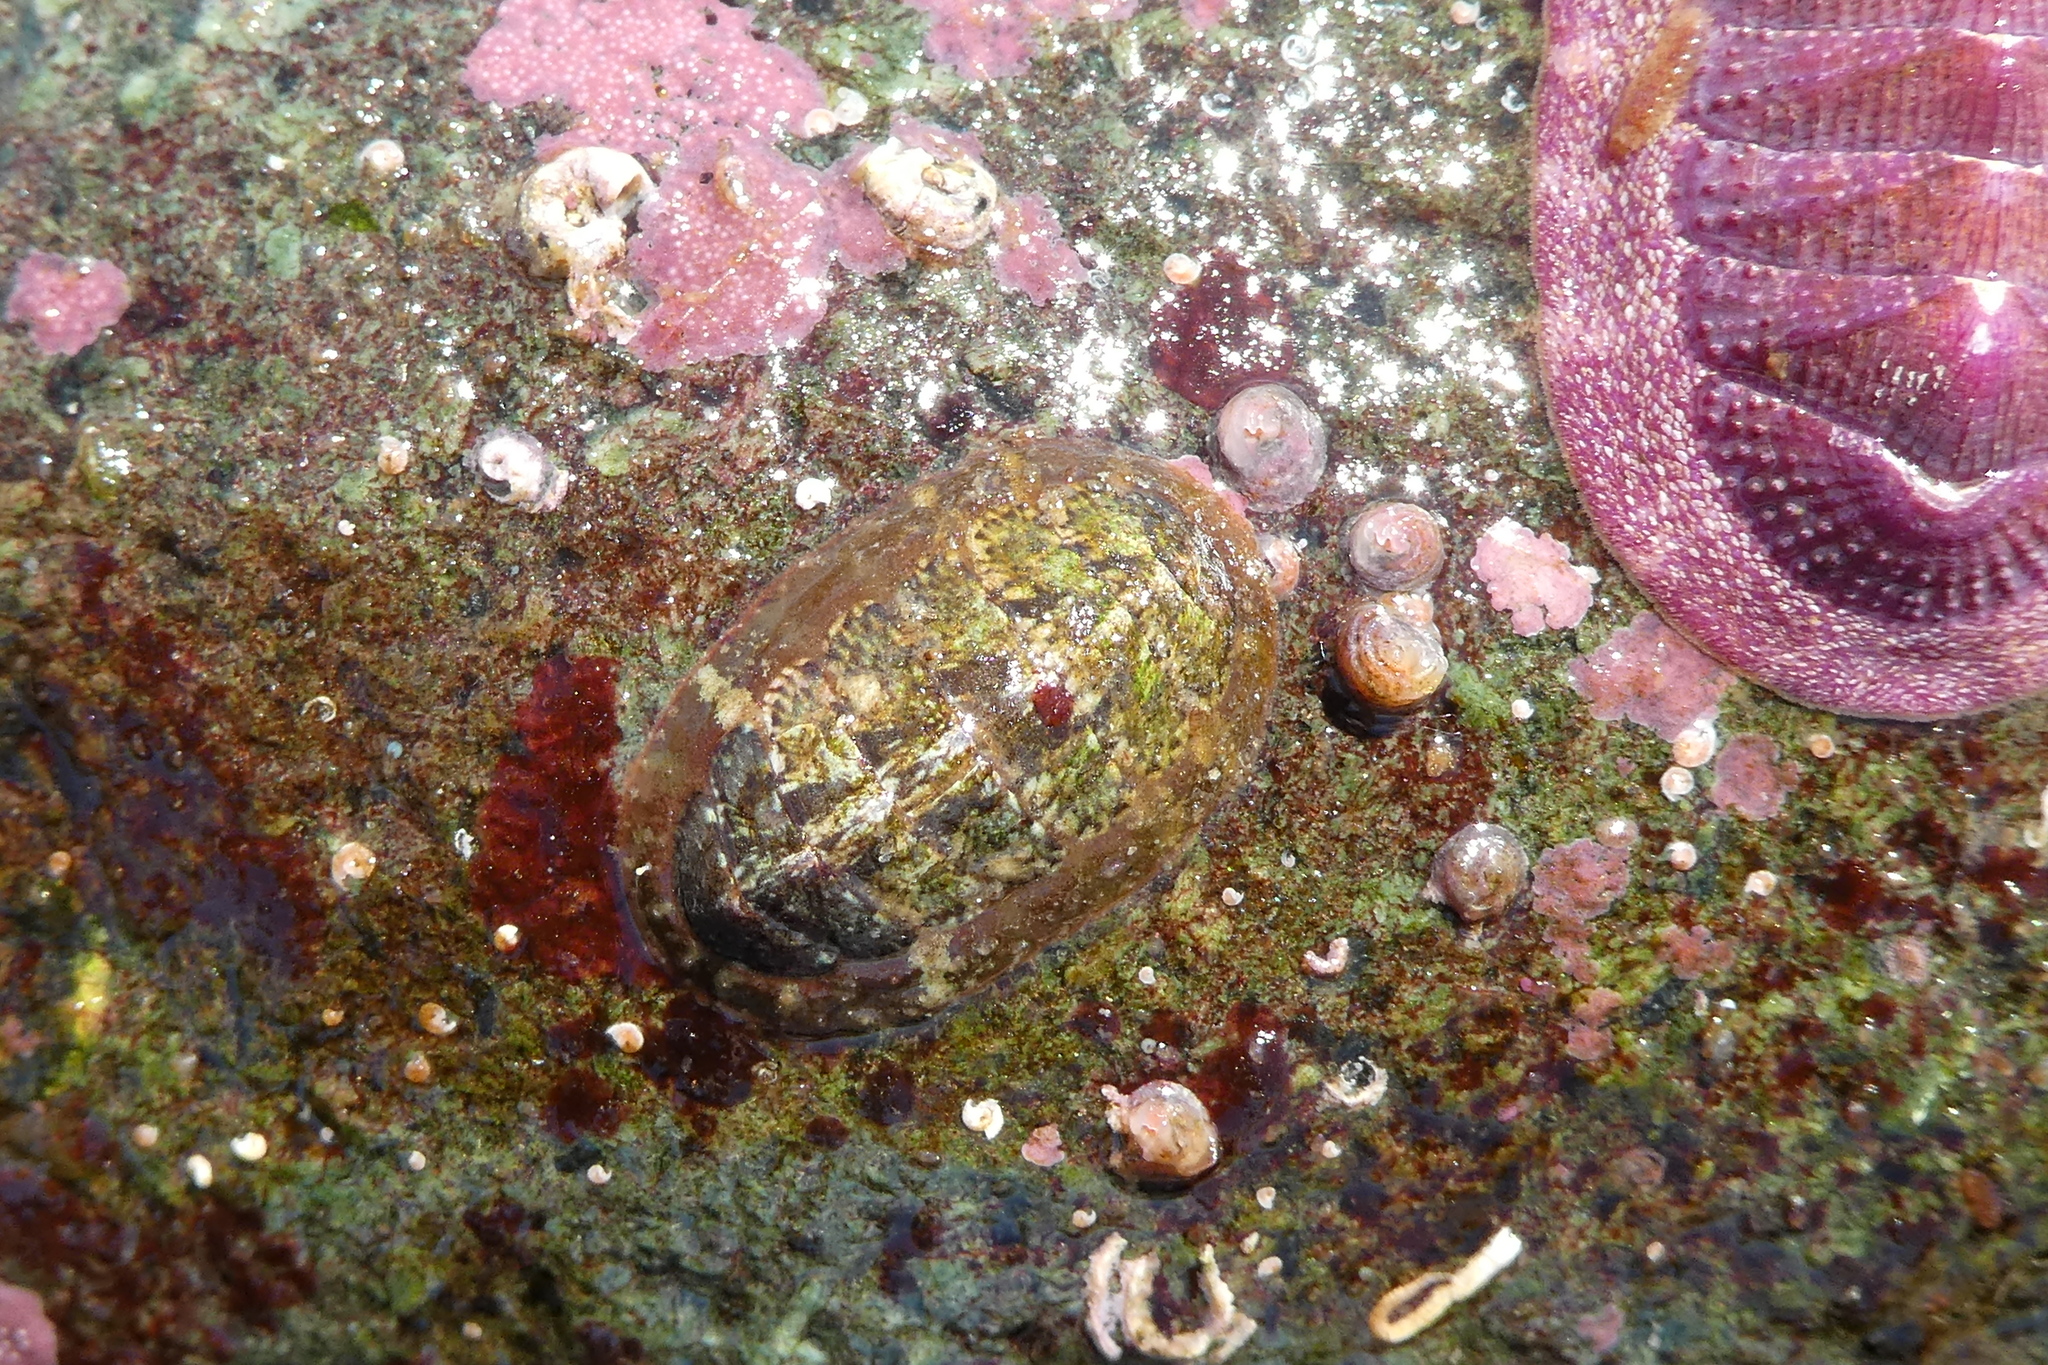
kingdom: Animalia
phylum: Mollusca
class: Polyplacophora
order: Chitonida
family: Mopaliidae
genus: Dendrochiton
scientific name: Dendrochiton flectens
